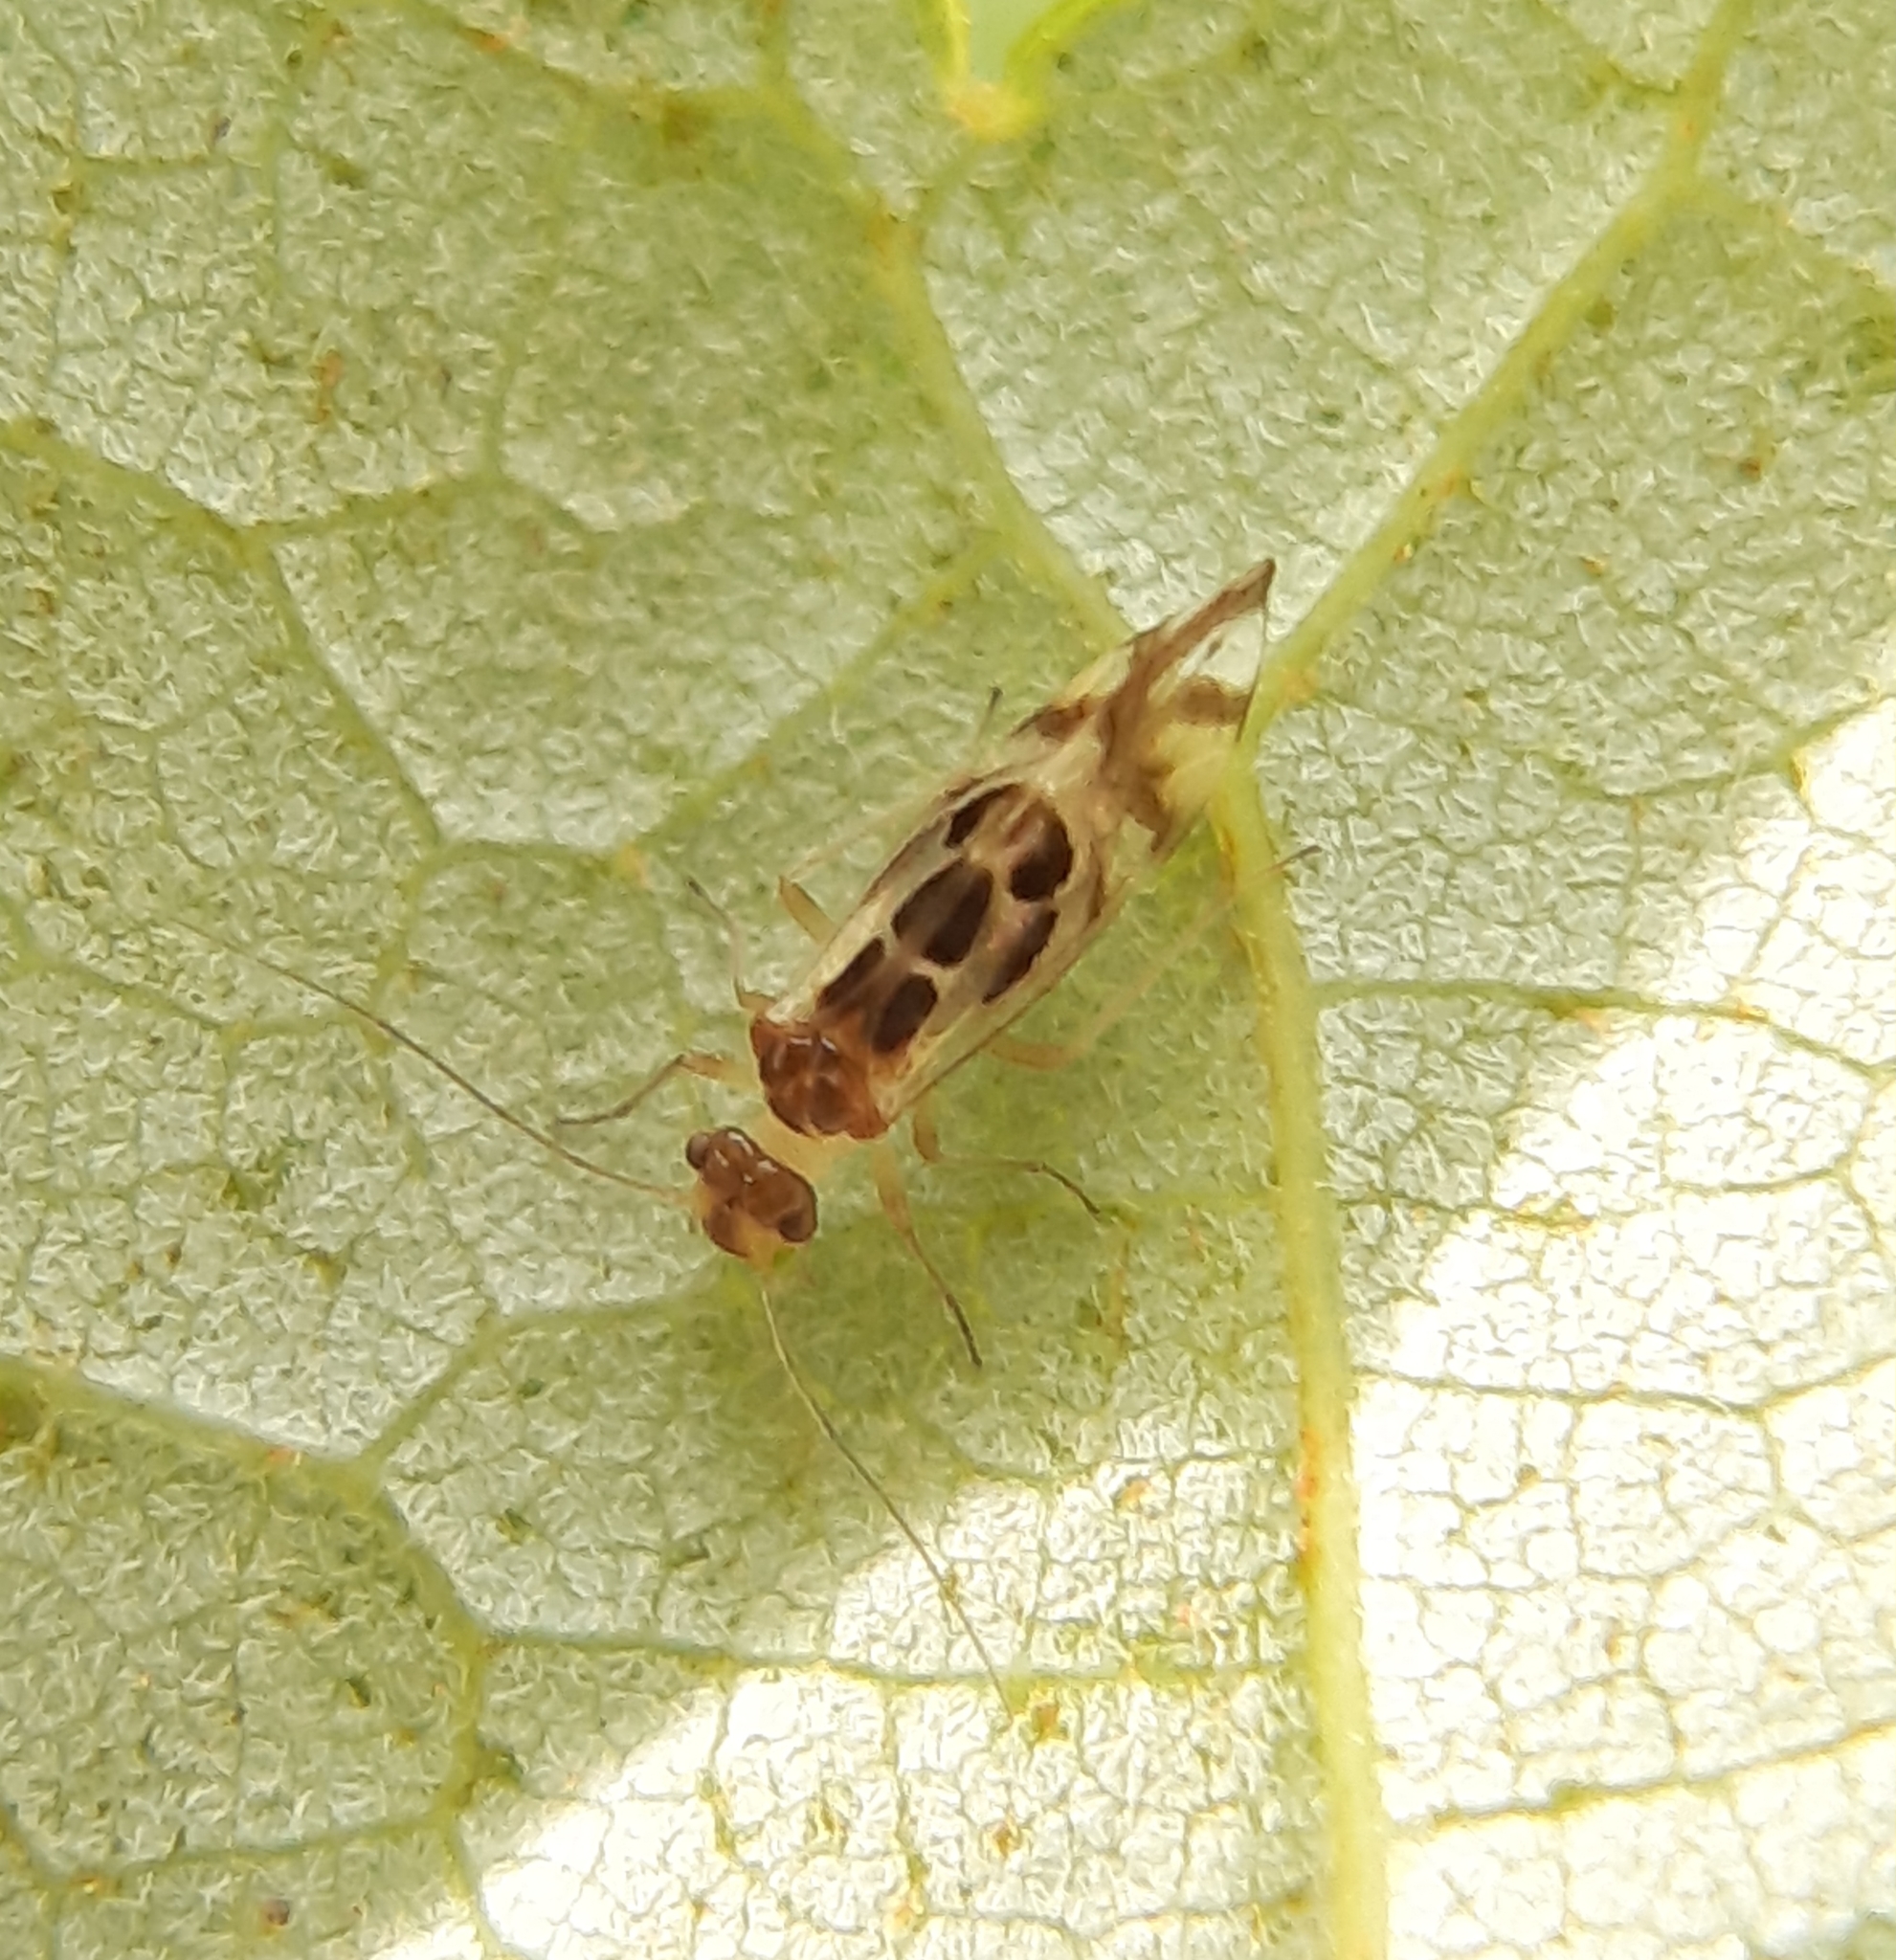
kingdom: Animalia
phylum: Arthropoda
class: Insecta
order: Psocodea
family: Stenopsocidae
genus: Graphopsocus
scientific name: Graphopsocus cruciatus
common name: Lizard bark louse
